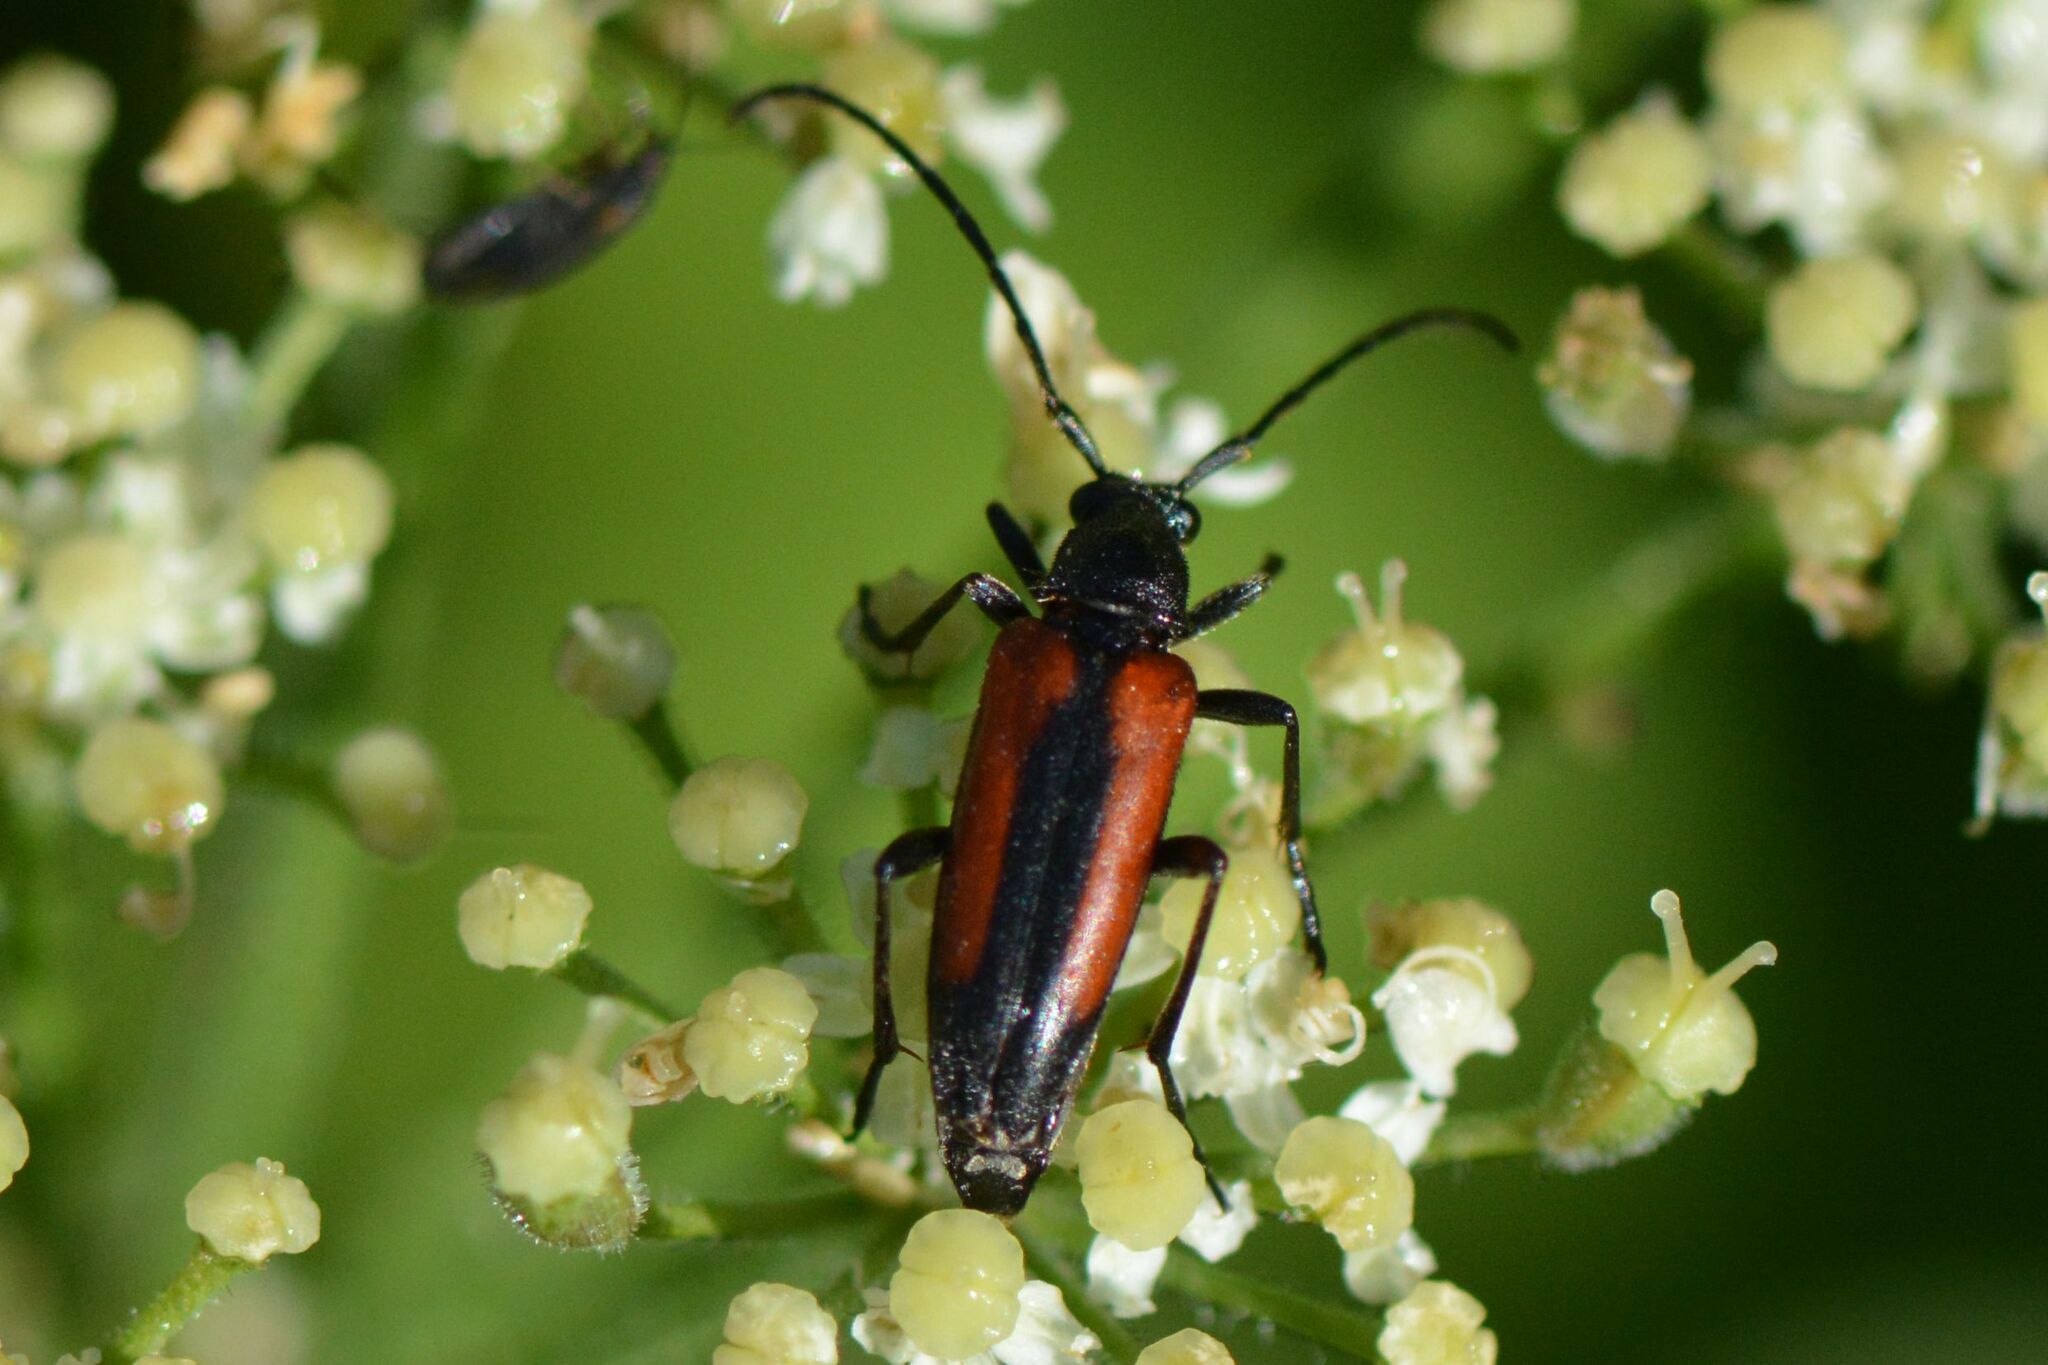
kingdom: Animalia
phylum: Arthropoda
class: Insecta
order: Coleoptera
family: Cerambycidae
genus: Stenurella
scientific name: Stenurella melanura
